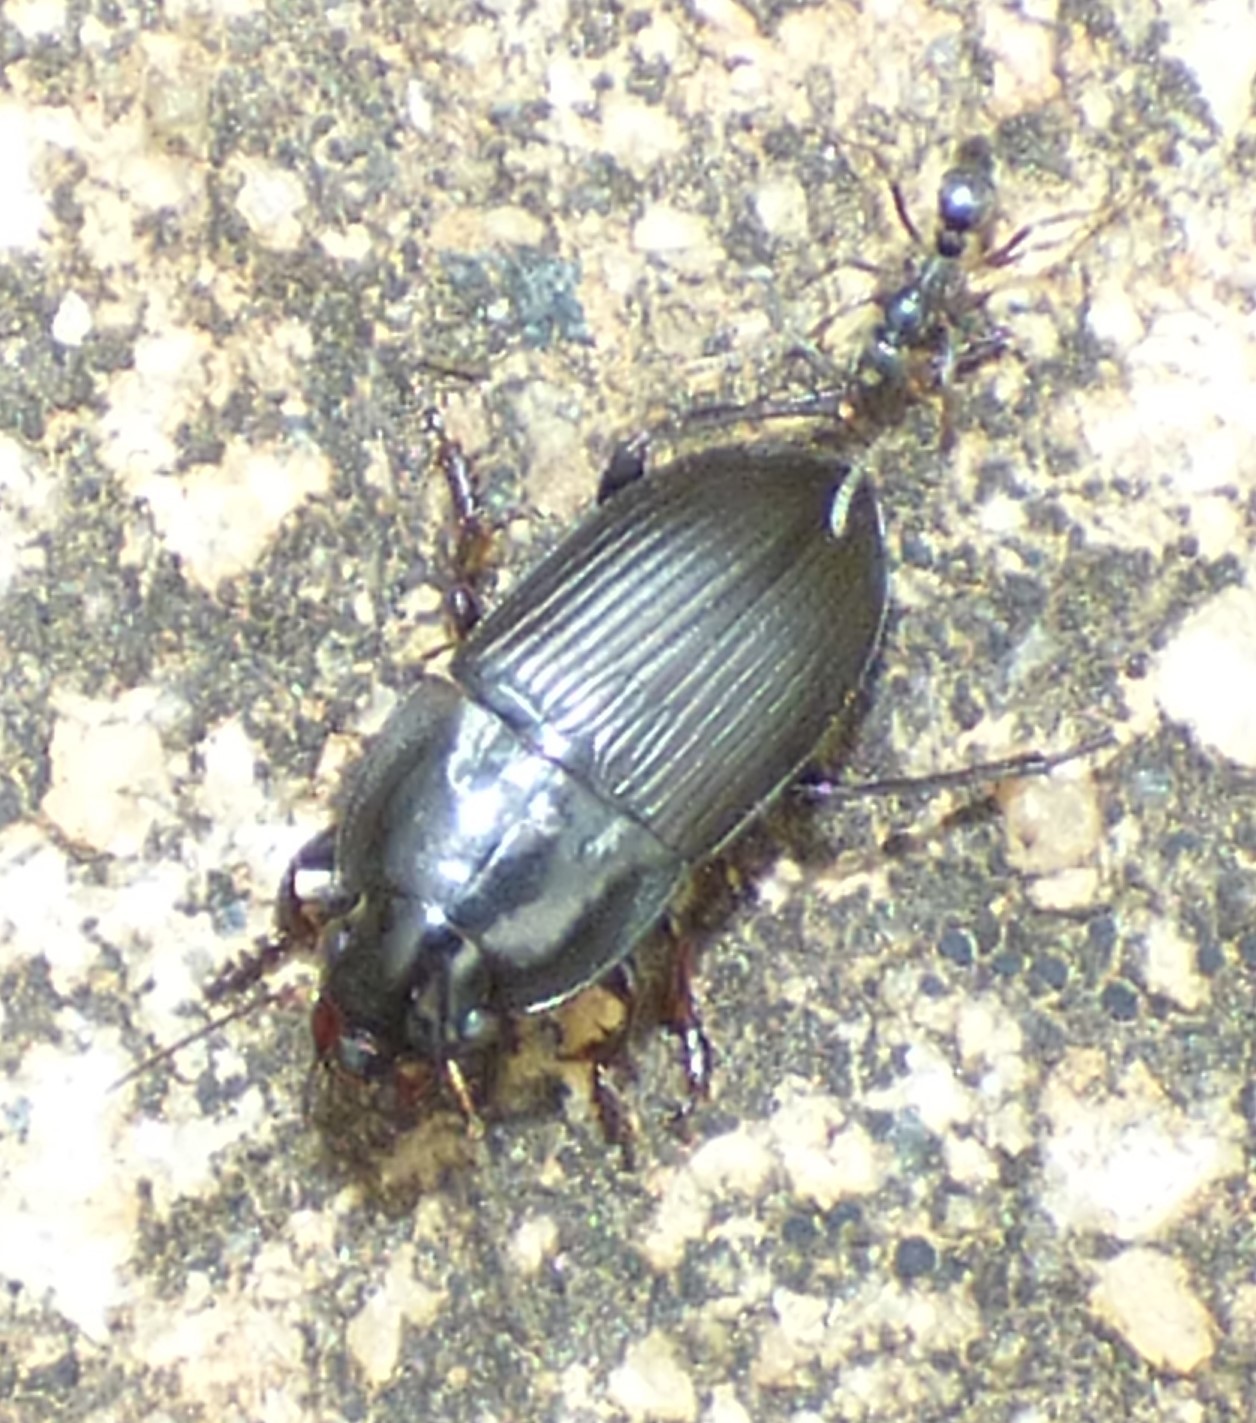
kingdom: Animalia
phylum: Arthropoda
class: Insecta
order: Coleoptera
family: Carabidae
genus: Anisodactylus
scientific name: Anisodactylus rusticus
